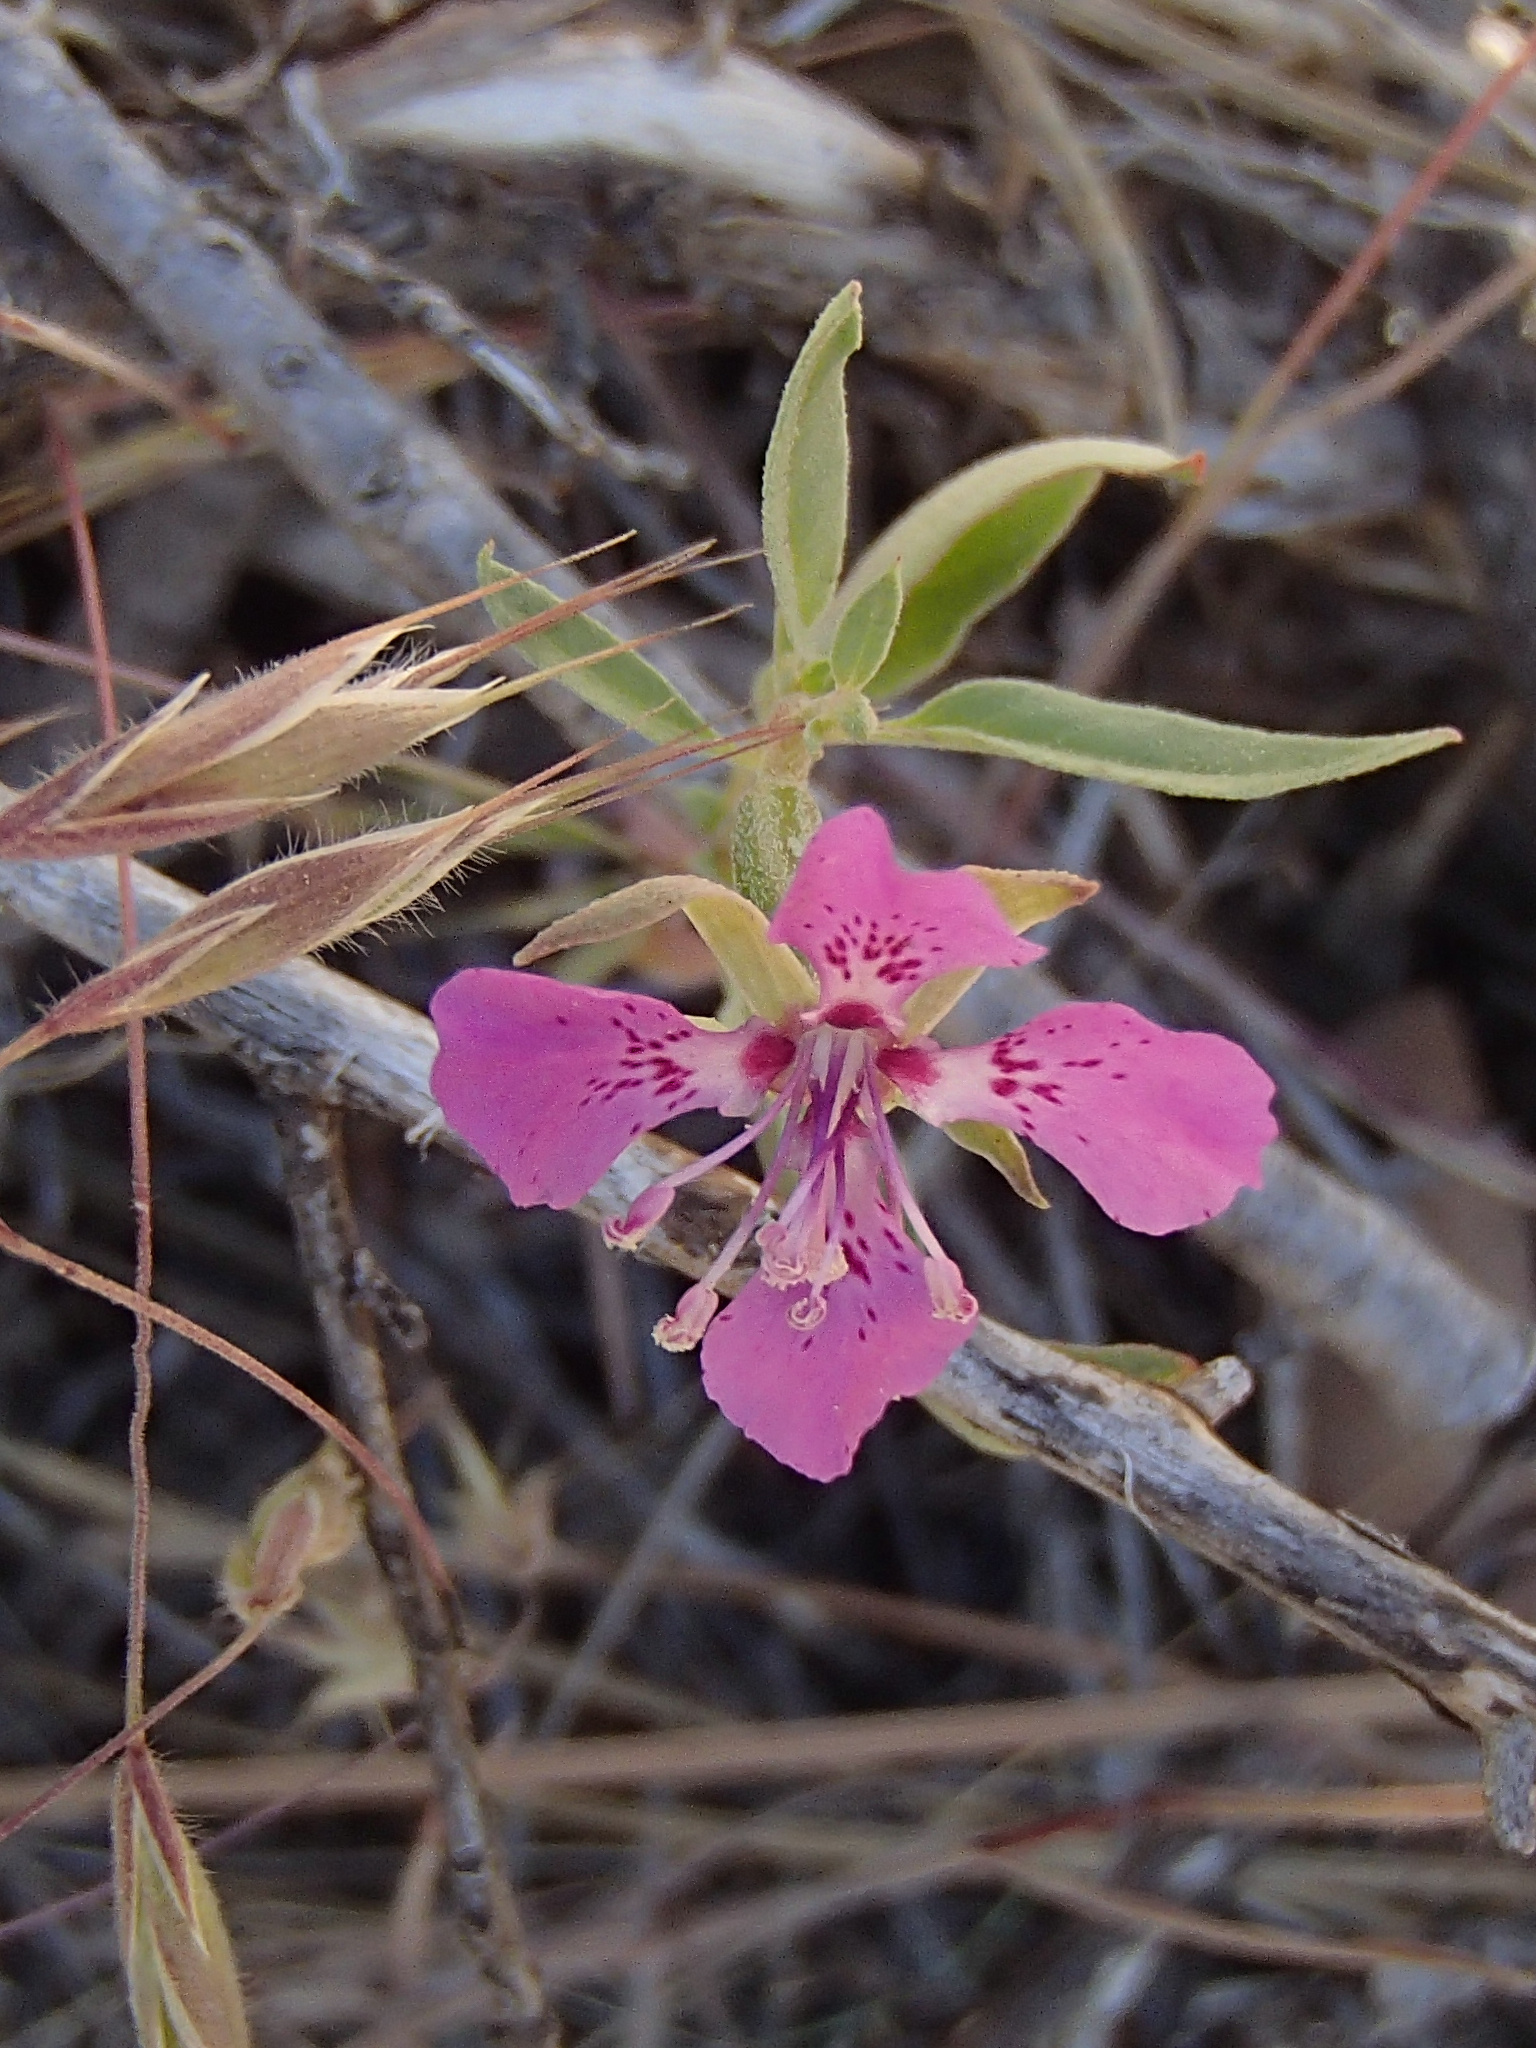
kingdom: Plantae
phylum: Tracheophyta
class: Magnoliopsida
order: Myrtales
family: Onagraceae
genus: Clarkia
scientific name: Clarkia rhomboidea
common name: Broadleaf clarkia
